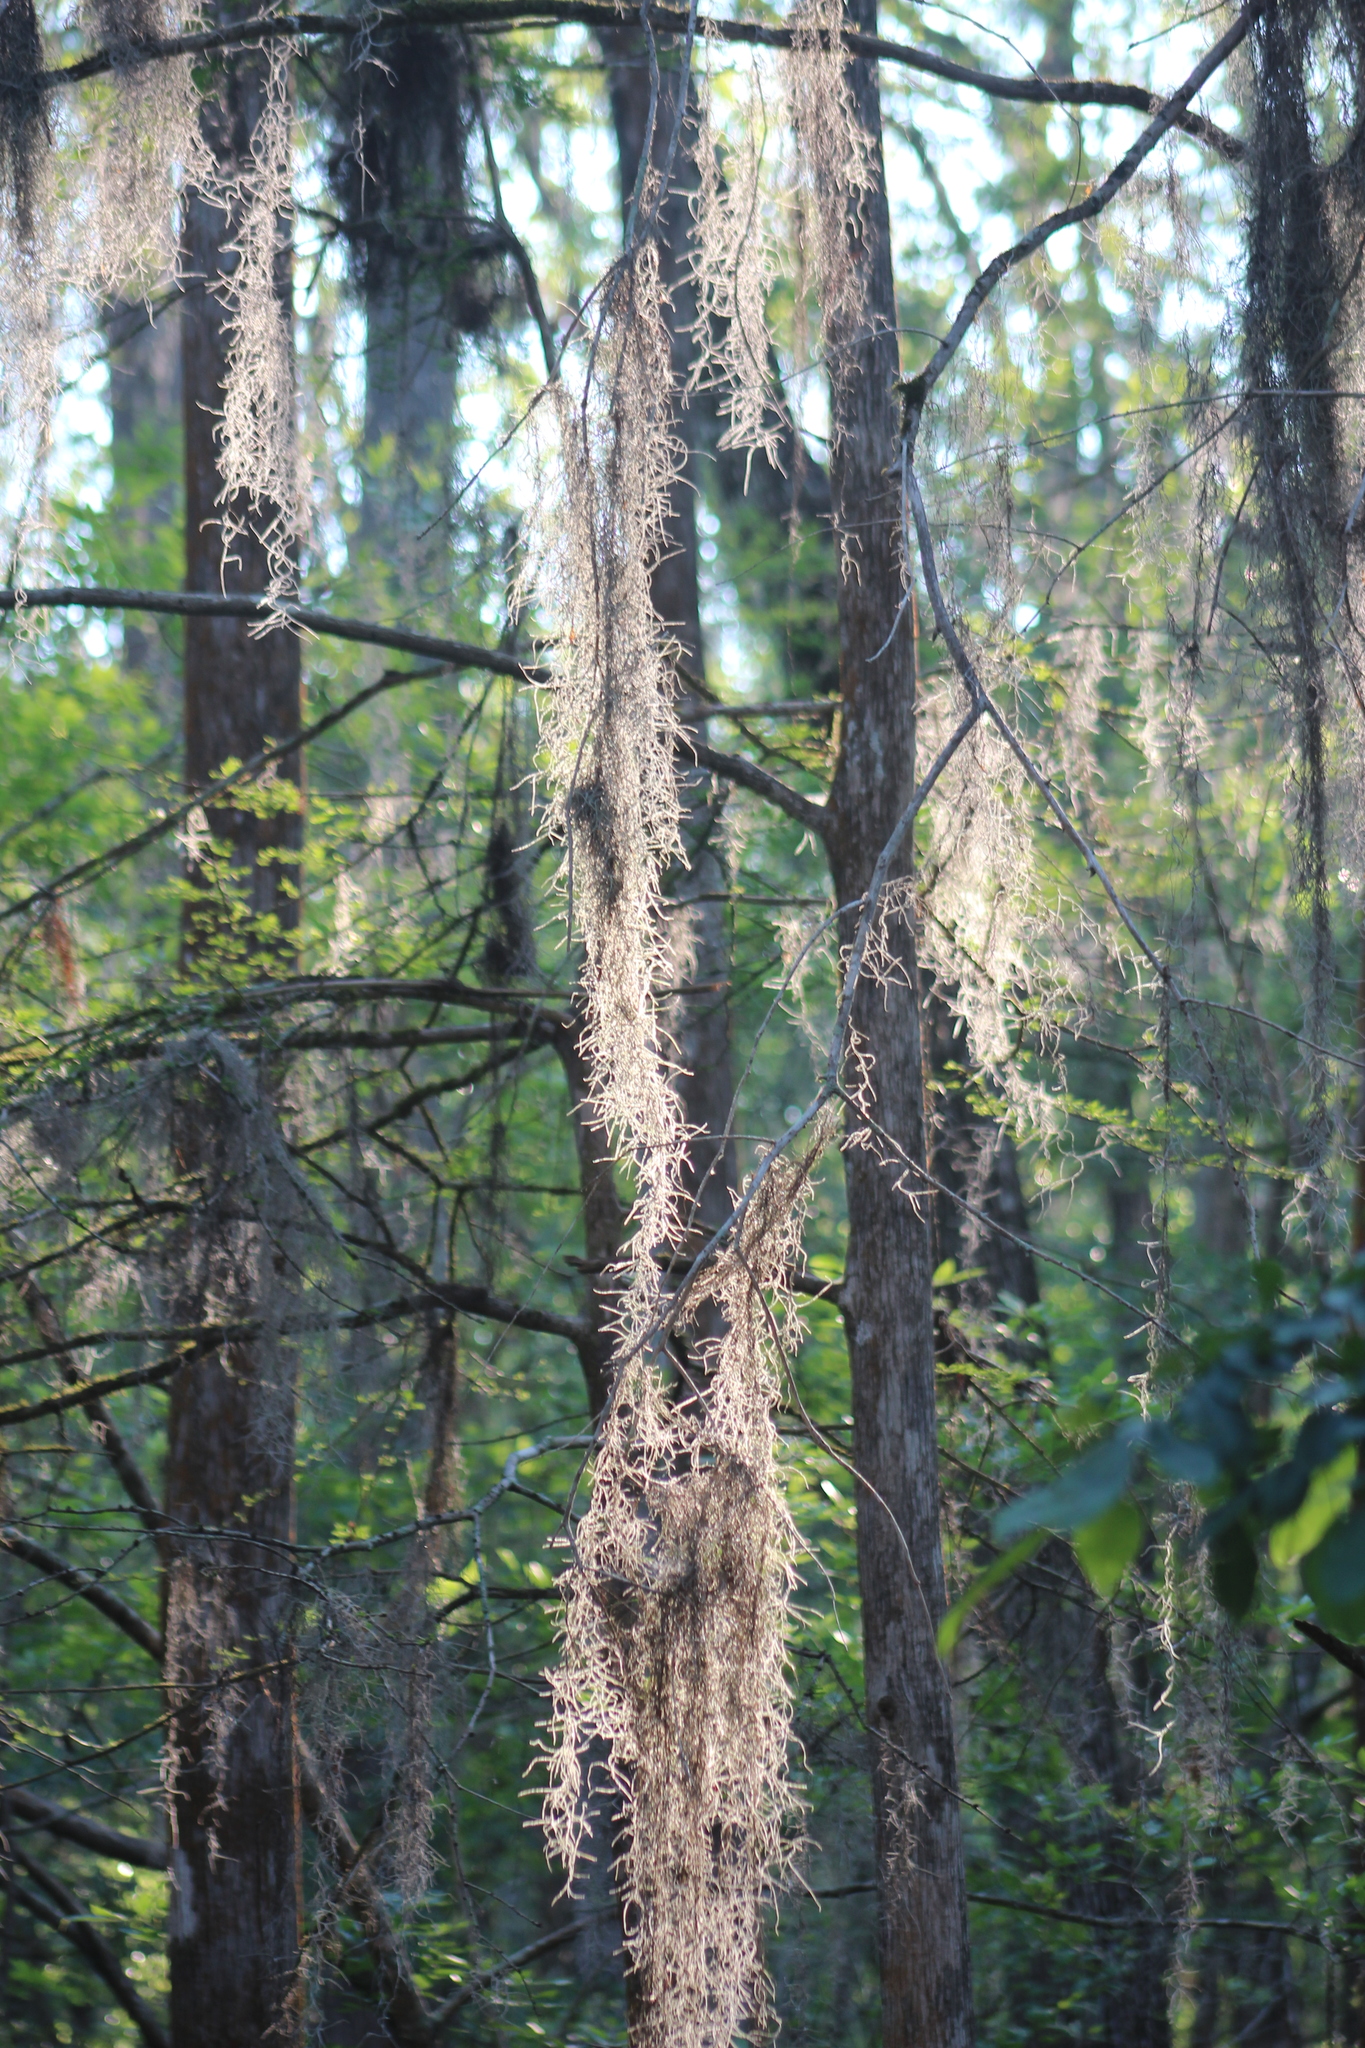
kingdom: Plantae
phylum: Tracheophyta
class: Liliopsida
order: Poales
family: Bromeliaceae
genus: Tillandsia
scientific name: Tillandsia usneoides
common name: Spanish moss
